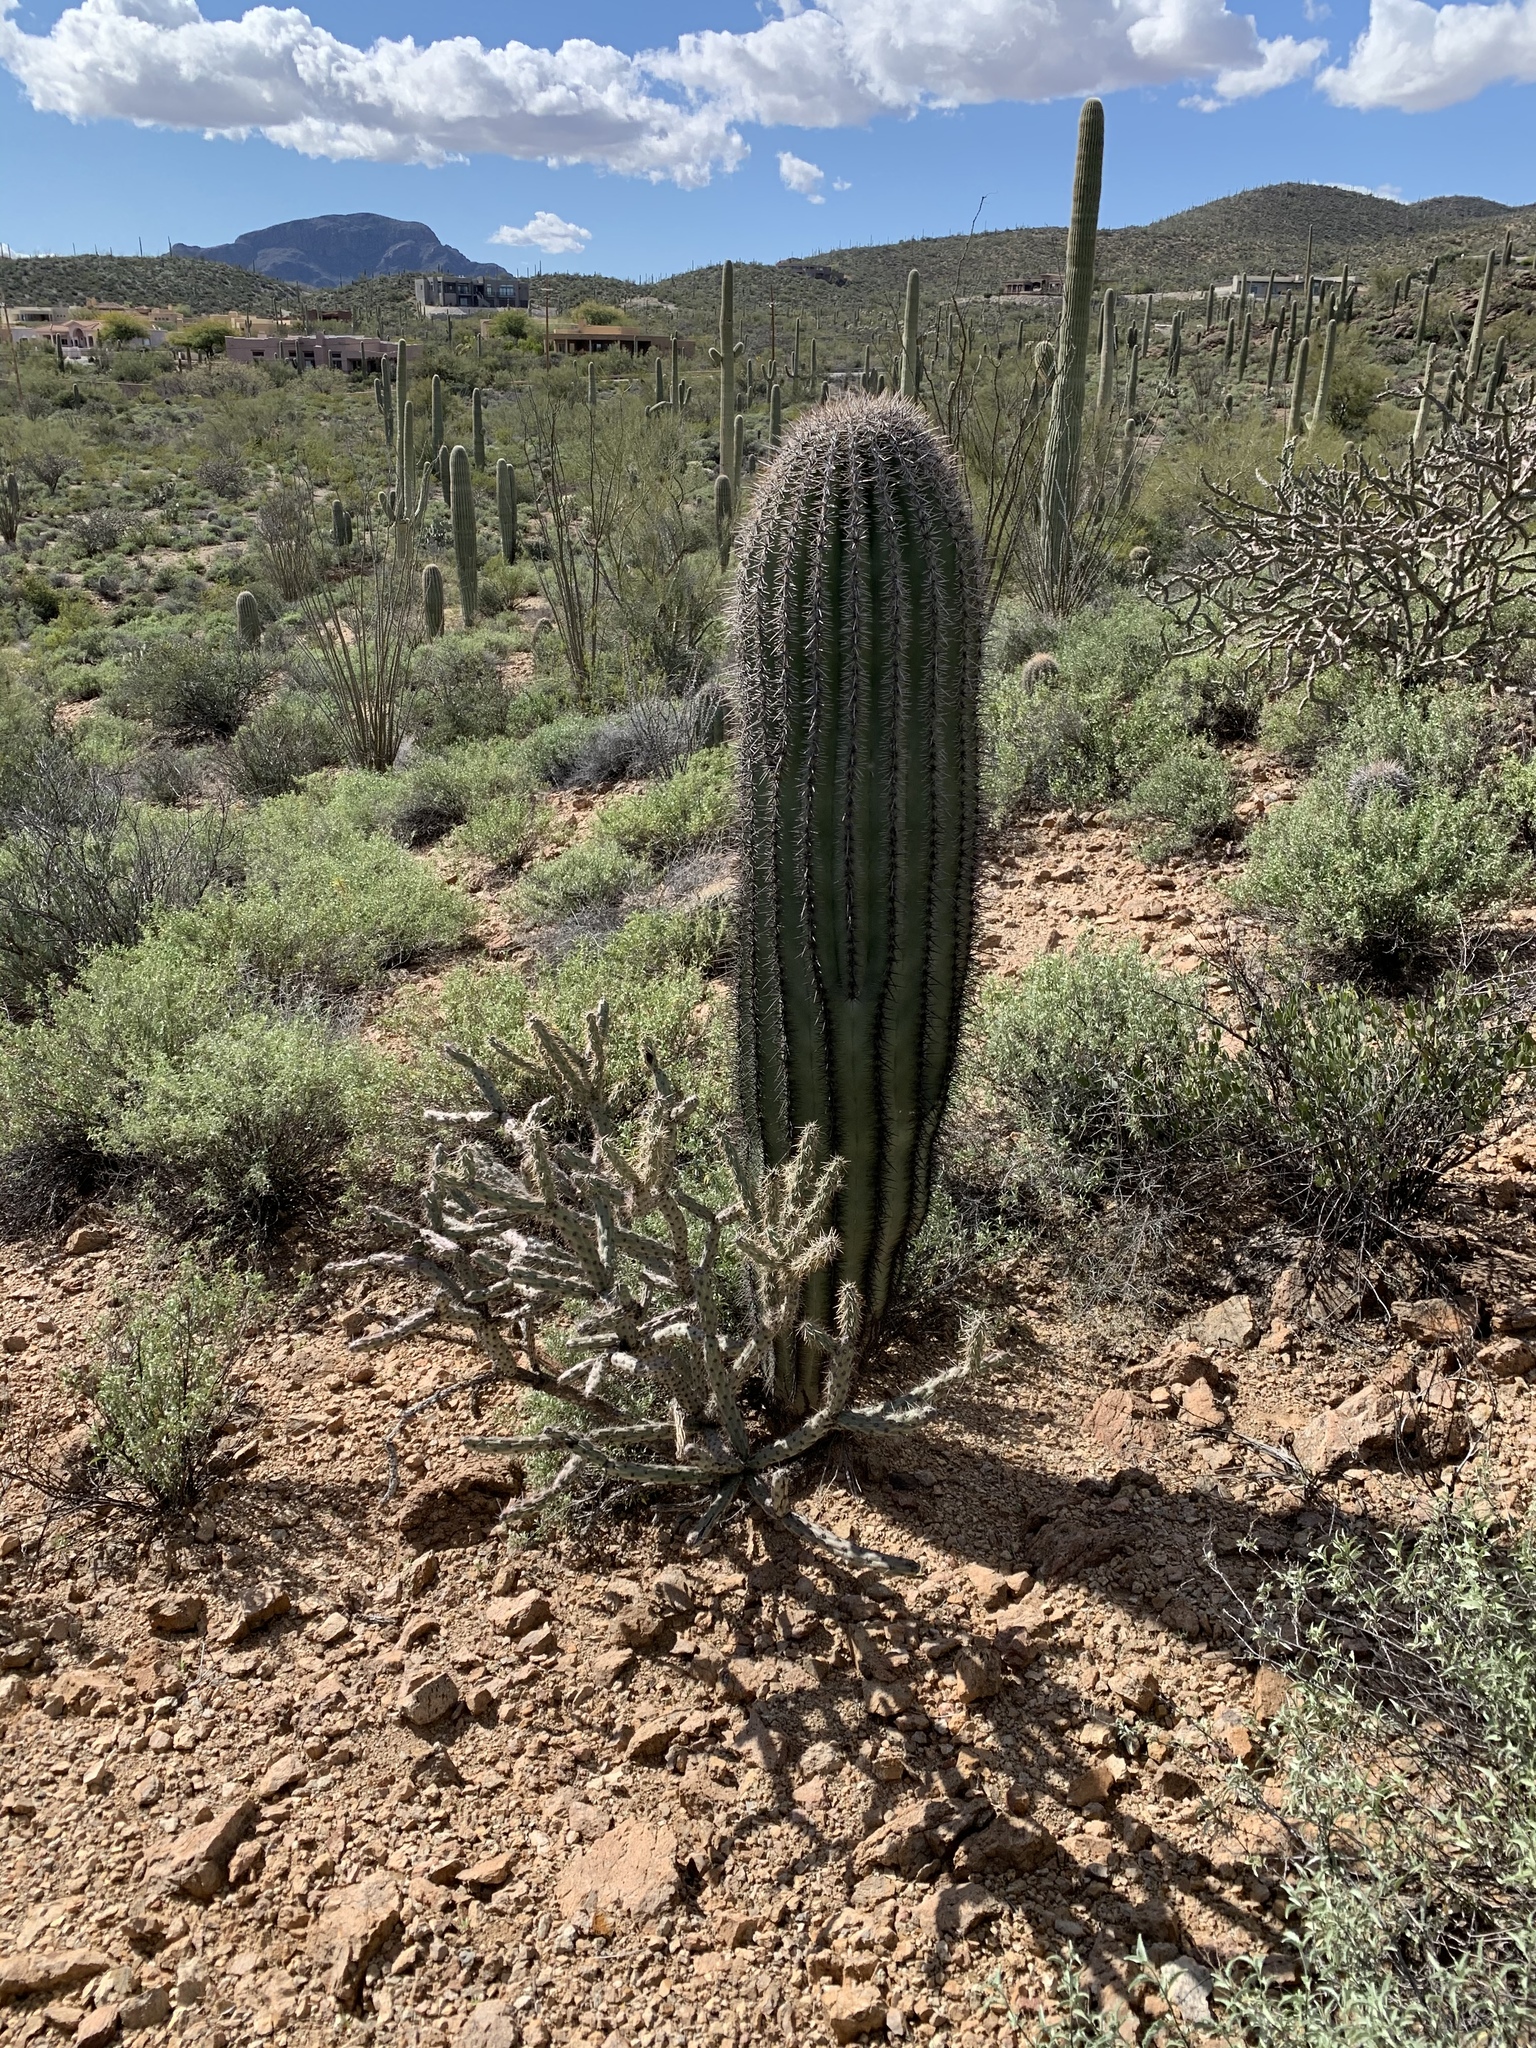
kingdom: Plantae
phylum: Tracheophyta
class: Magnoliopsida
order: Caryophyllales
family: Cactaceae
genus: Carnegiea
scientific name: Carnegiea gigantea
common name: Saguaro
